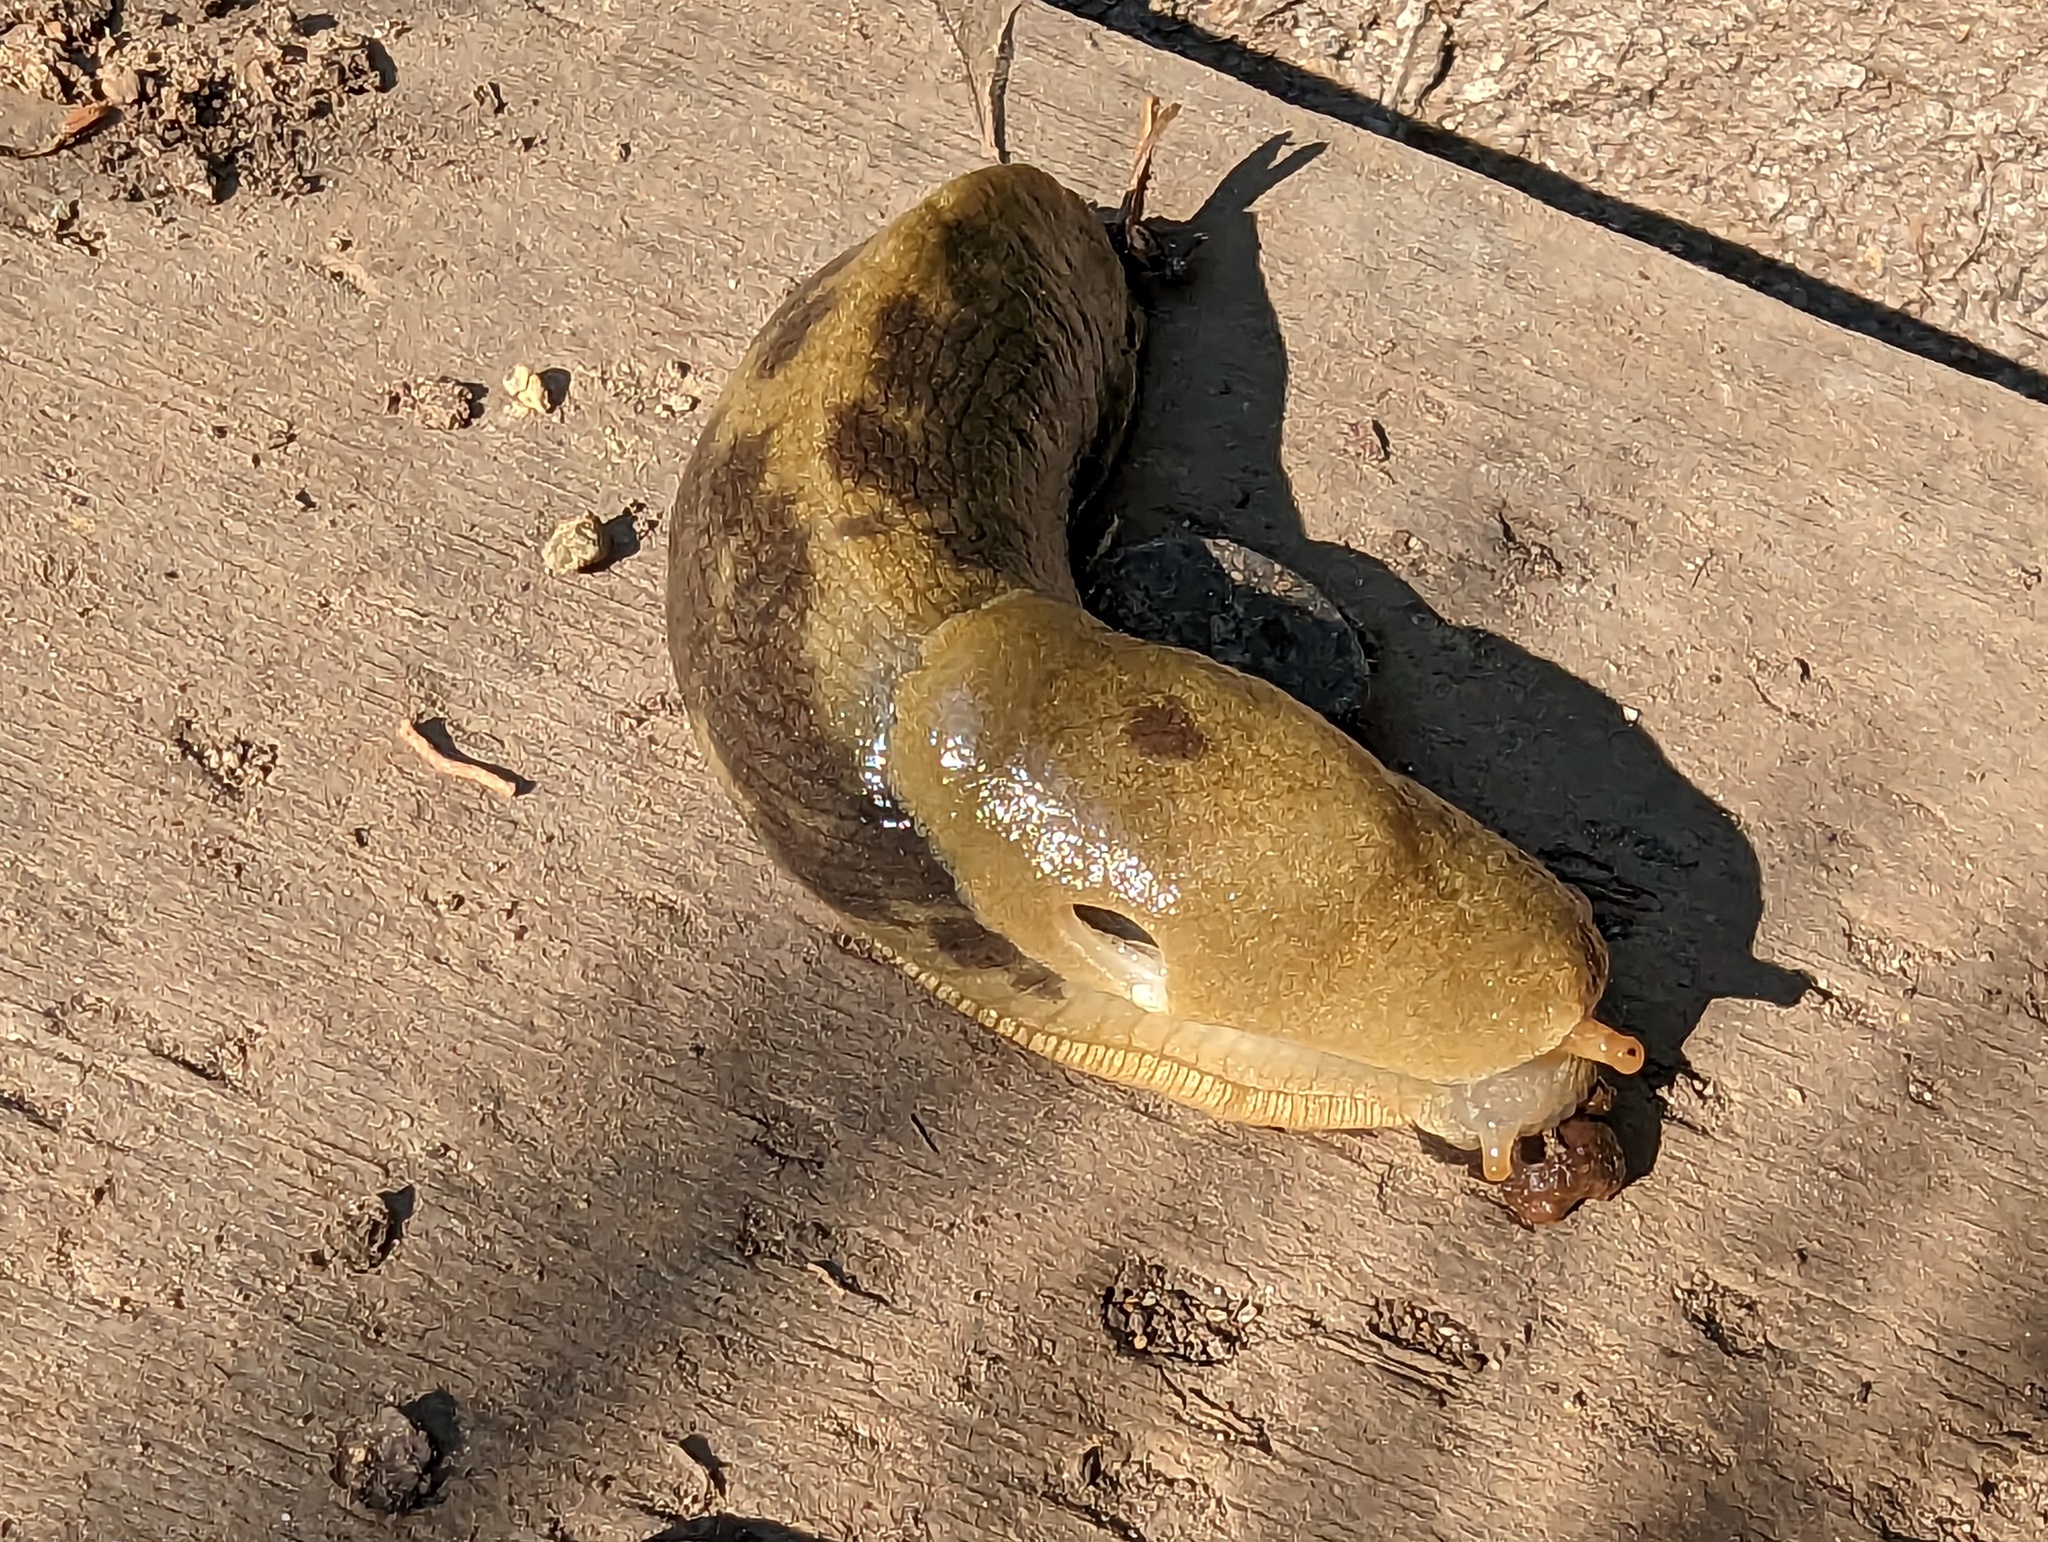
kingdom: Animalia
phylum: Mollusca
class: Gastropoda
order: Stylommatophora
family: Ariolimacidae
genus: Ariolimax
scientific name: Ariolimax columbianus
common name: Pacific banana slug
